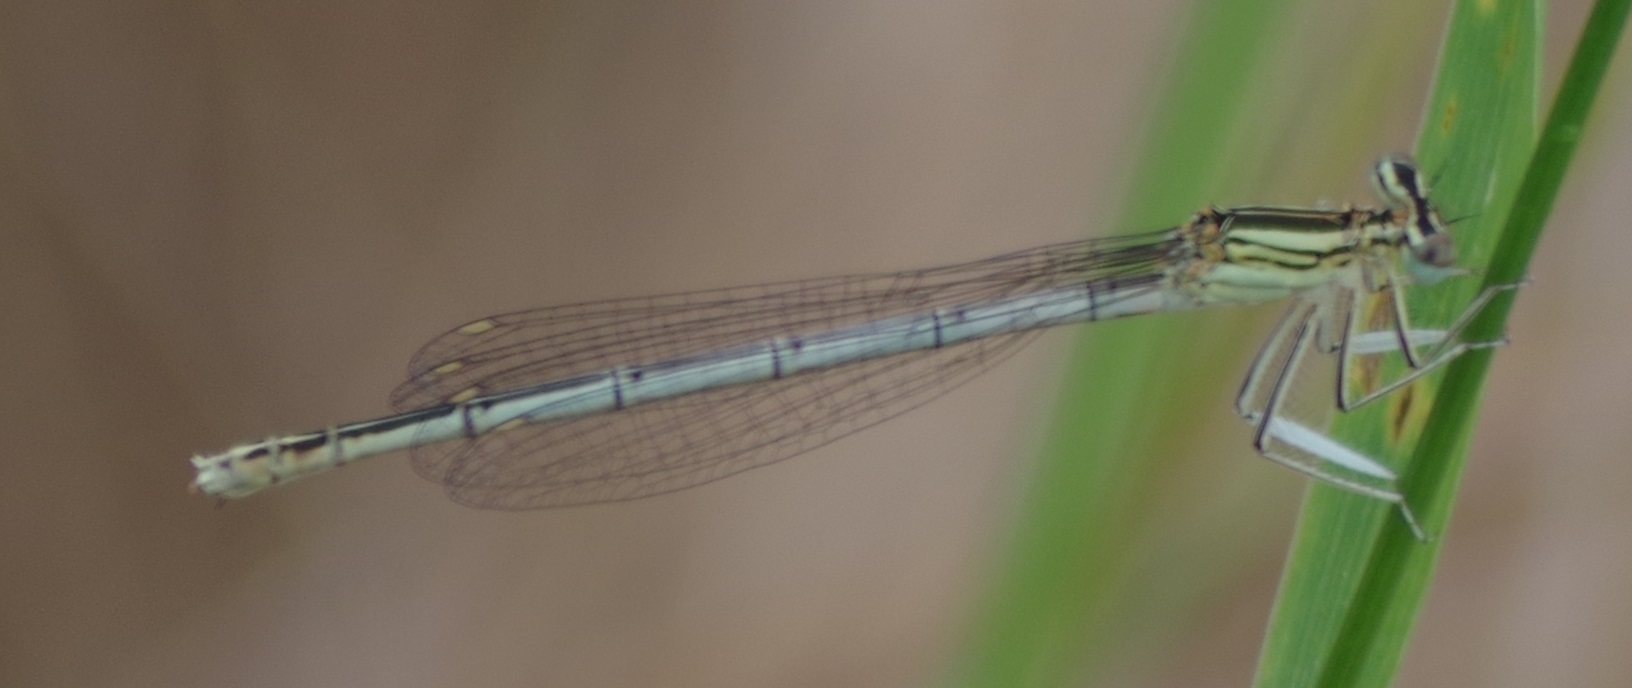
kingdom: Animalia
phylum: Arthropoda
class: Insecta
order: Odonata
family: Platycnemididae
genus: Platycnemis
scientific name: Platycnemis pennipes
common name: White-legged damselfly
